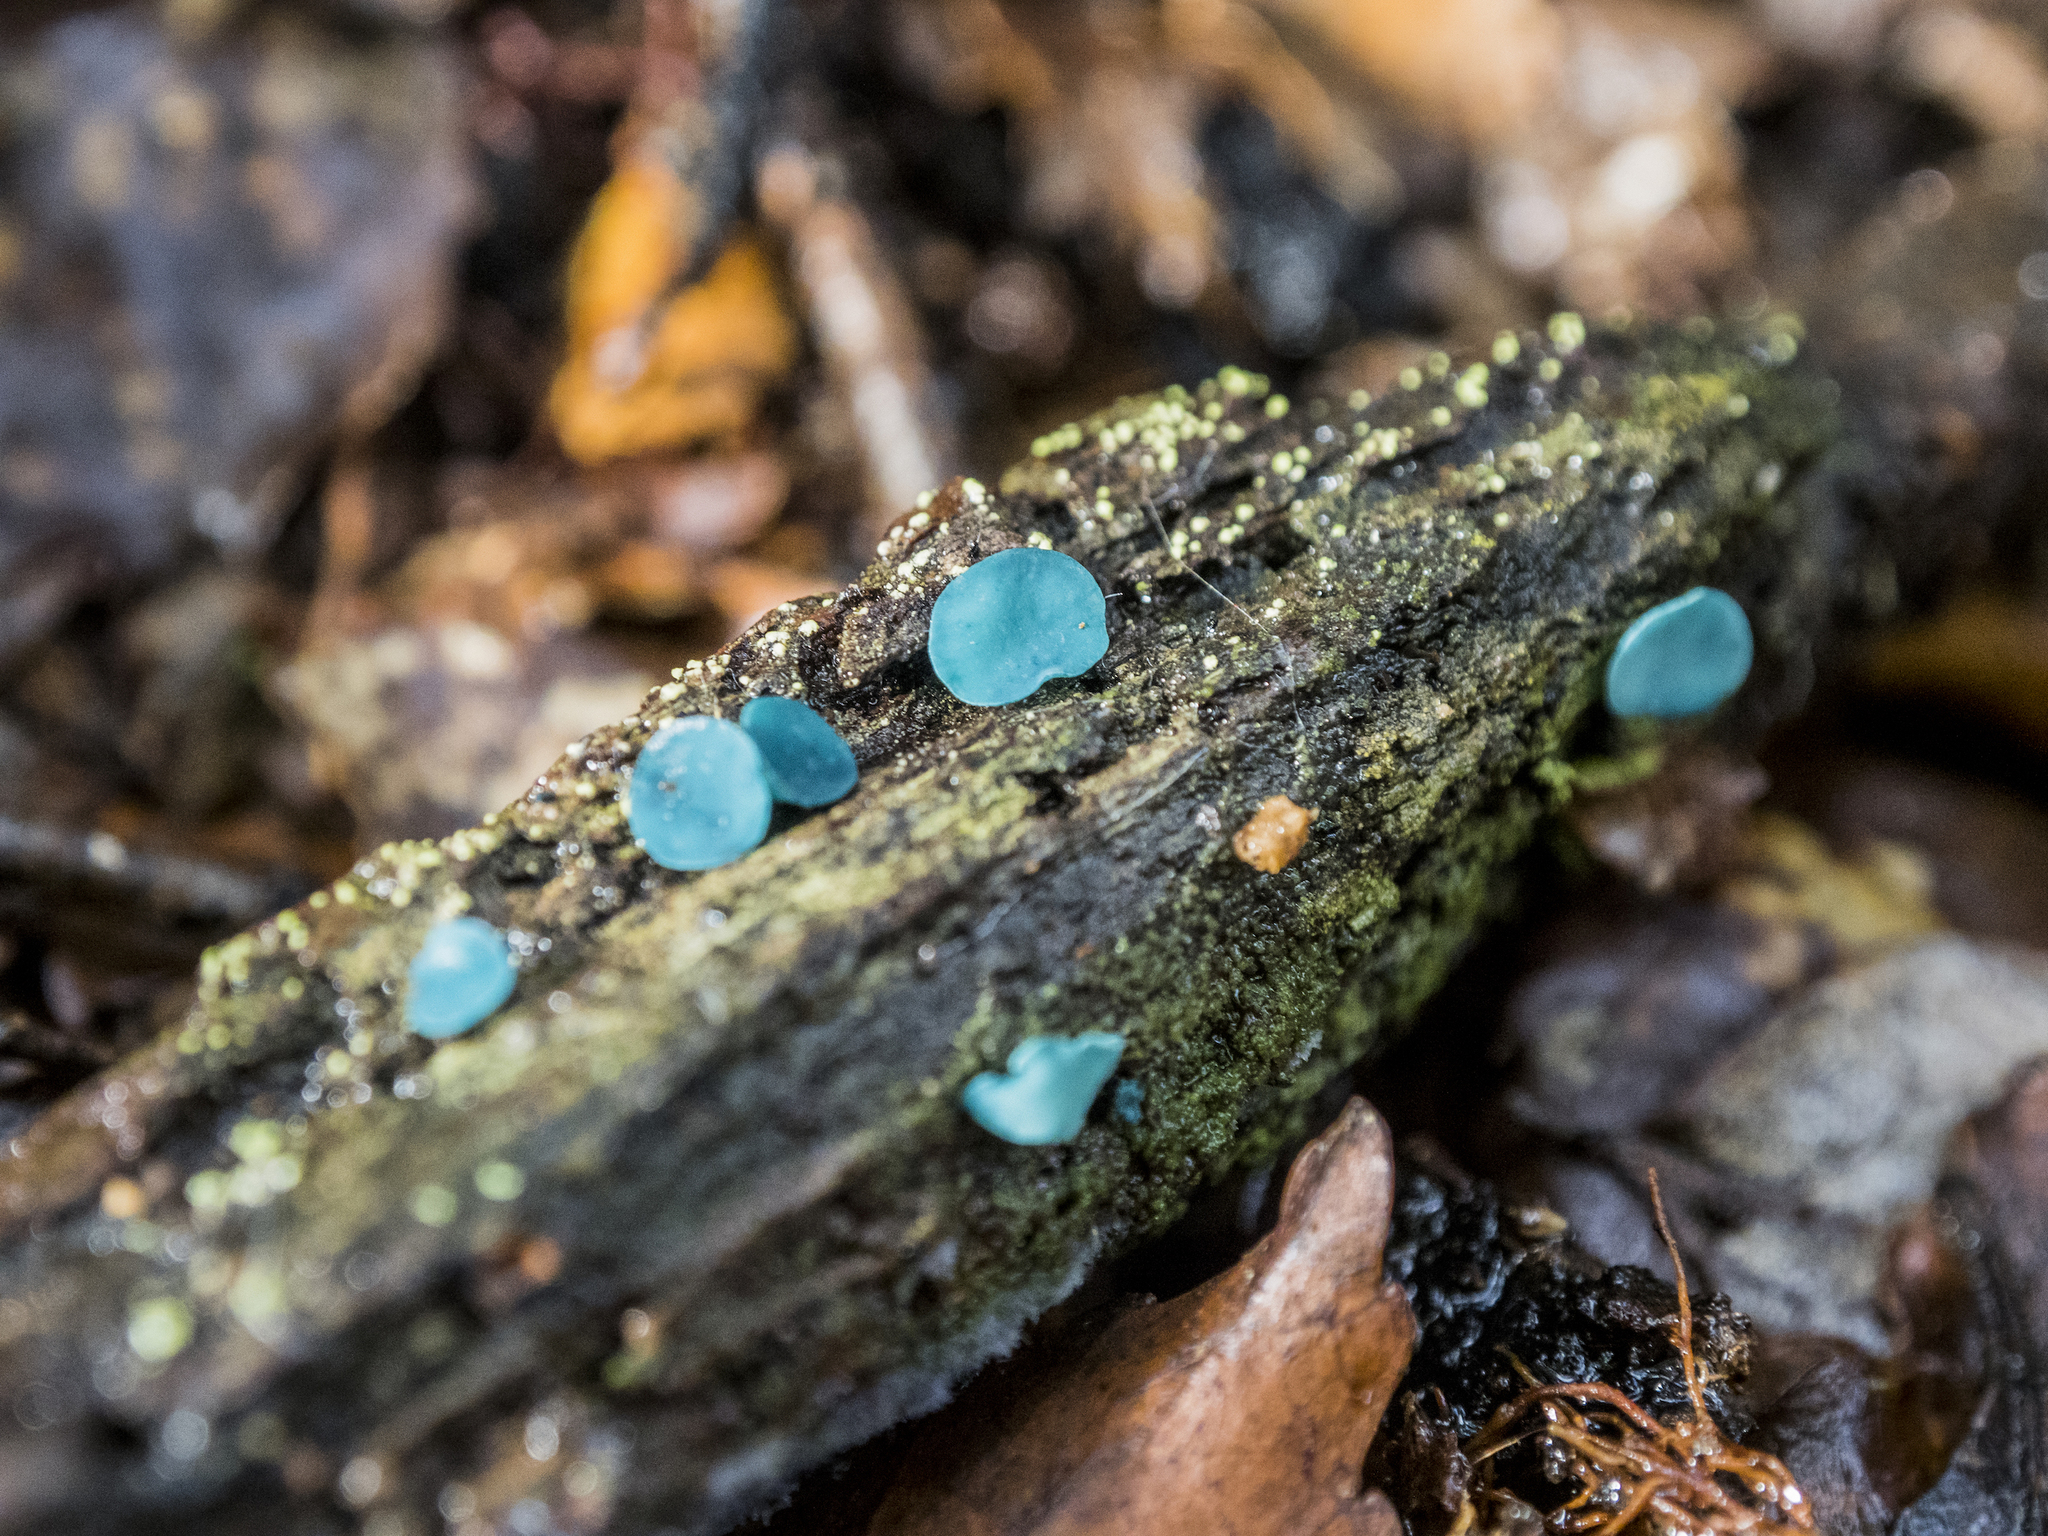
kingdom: Fungi
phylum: Ascomycota
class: Leotiomycetes
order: Helotiales
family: Chlorociboriaceae
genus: Chlorociboria
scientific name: Chlorociboria
